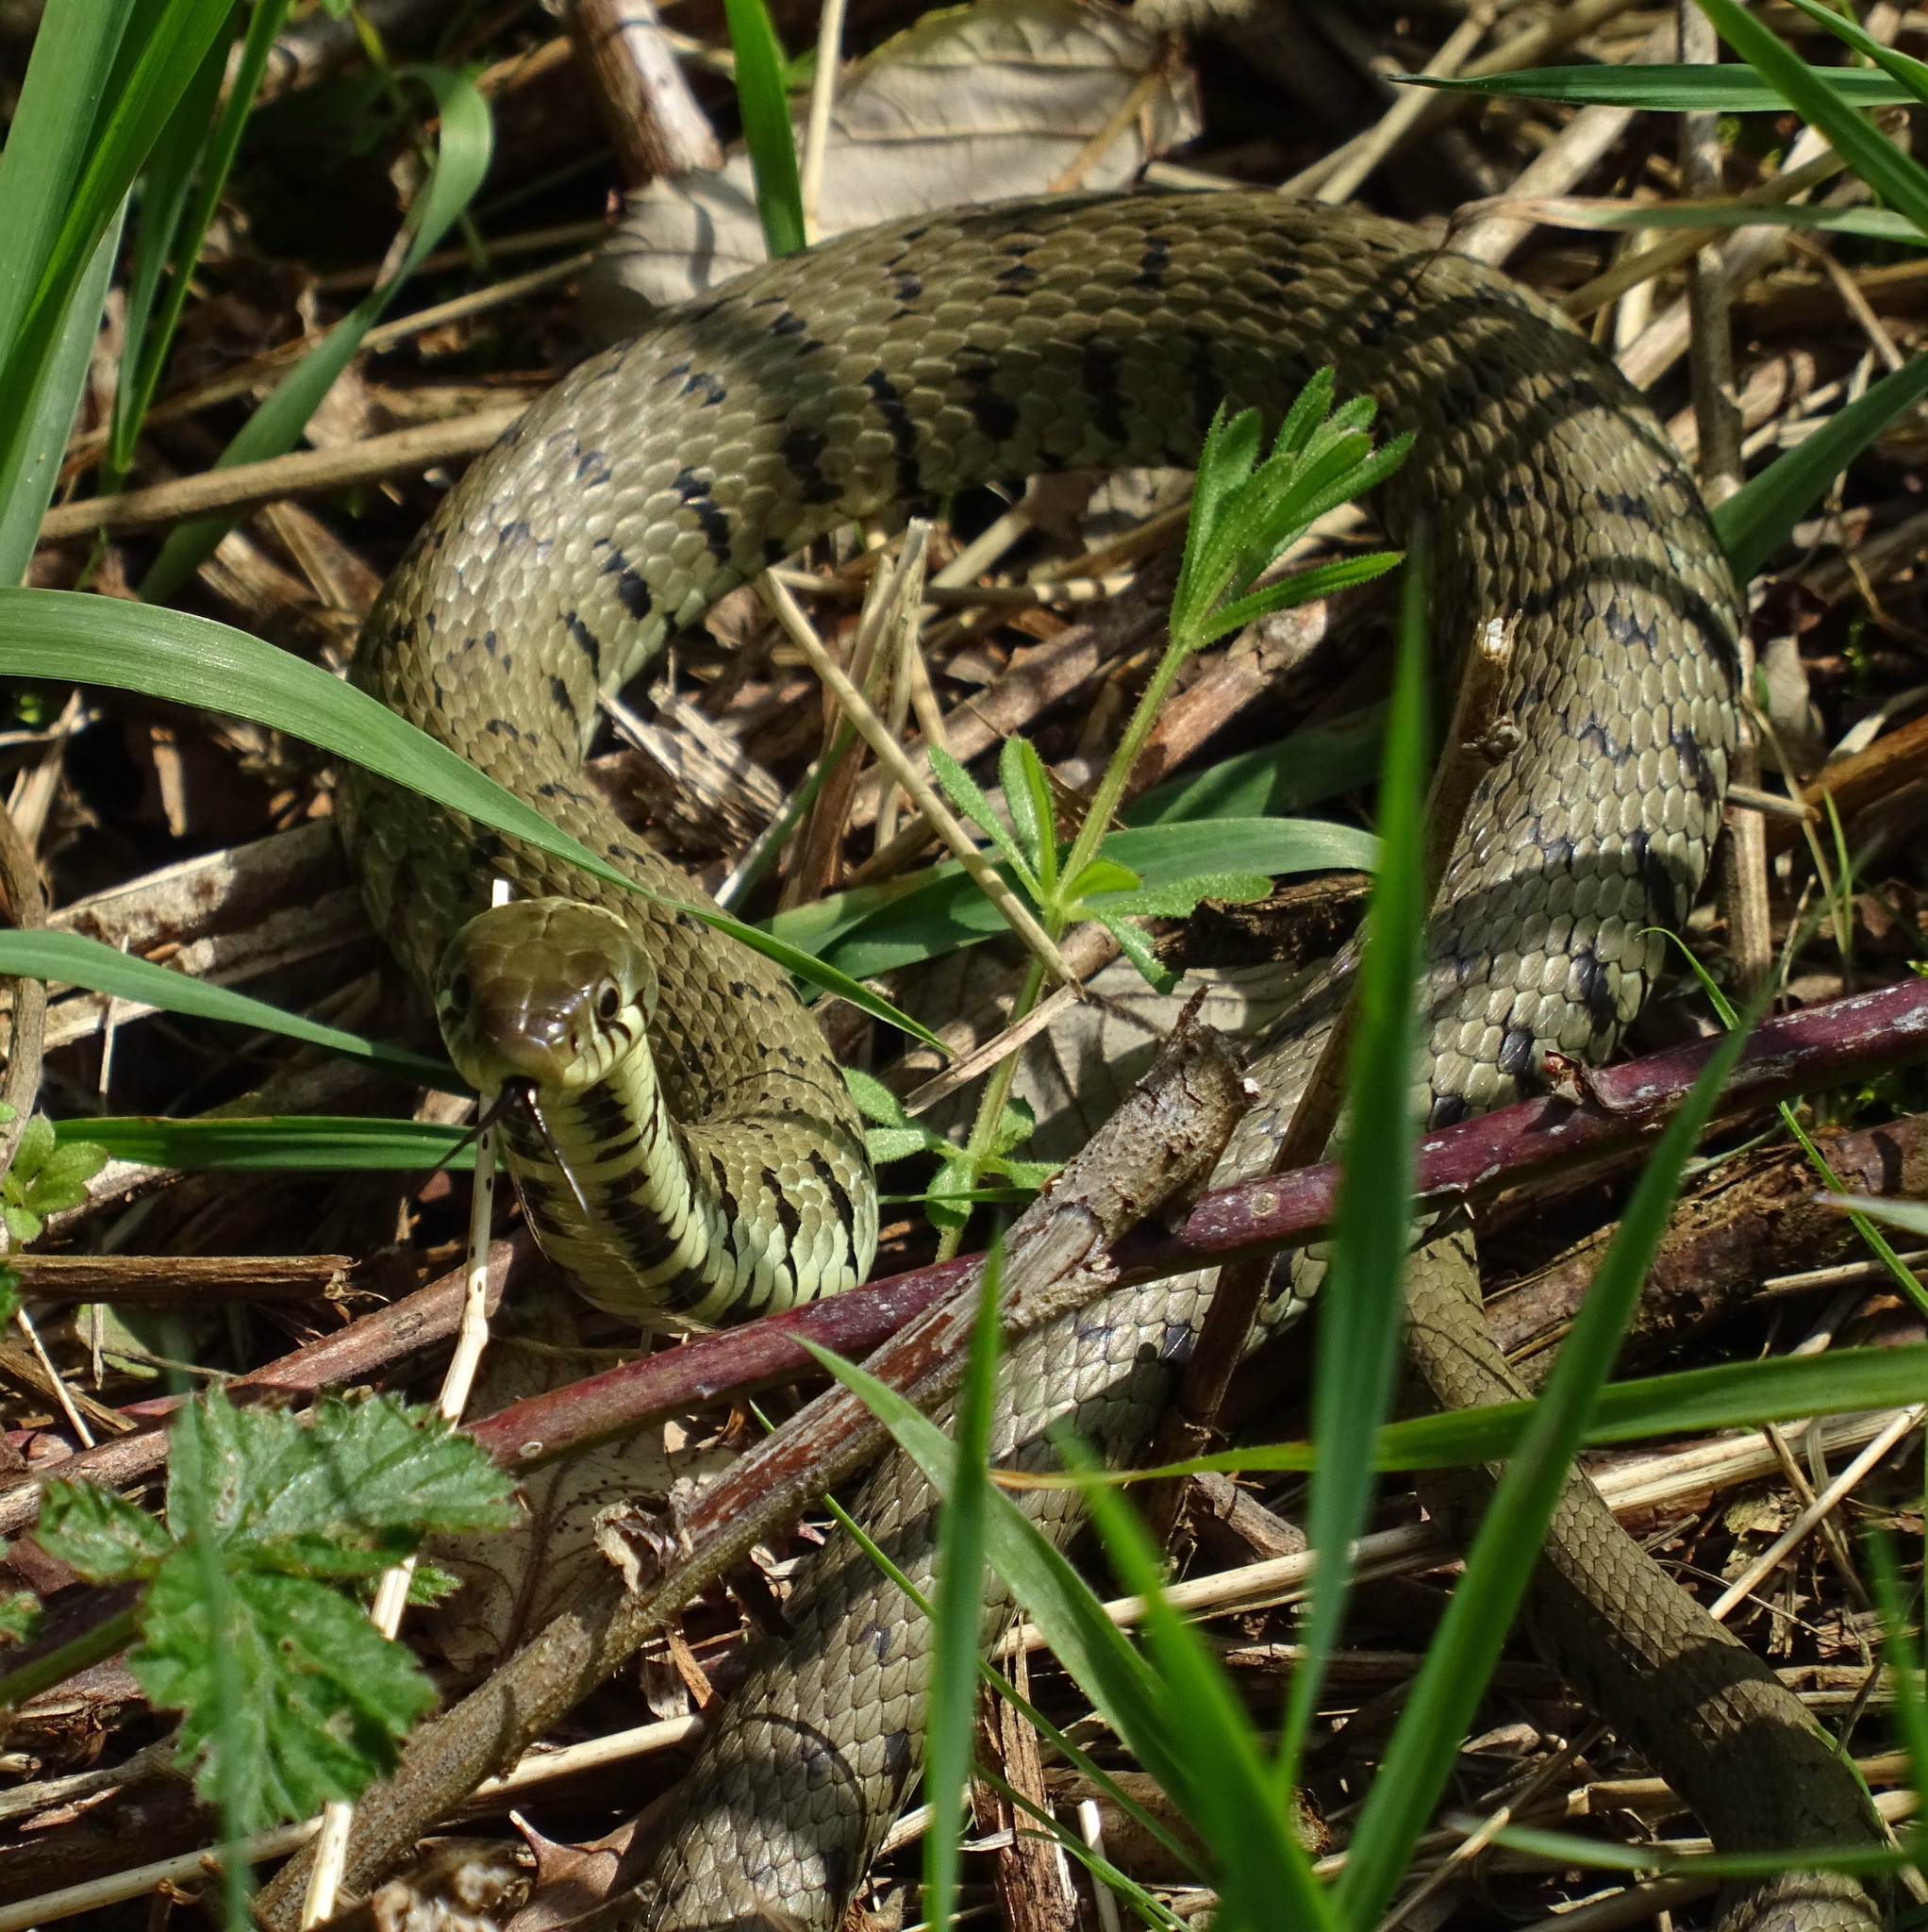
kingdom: Animalia
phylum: Chordata
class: Squamata
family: Colubridae
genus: Natrix
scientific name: Natrix helvetica
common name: Banded grass snake
